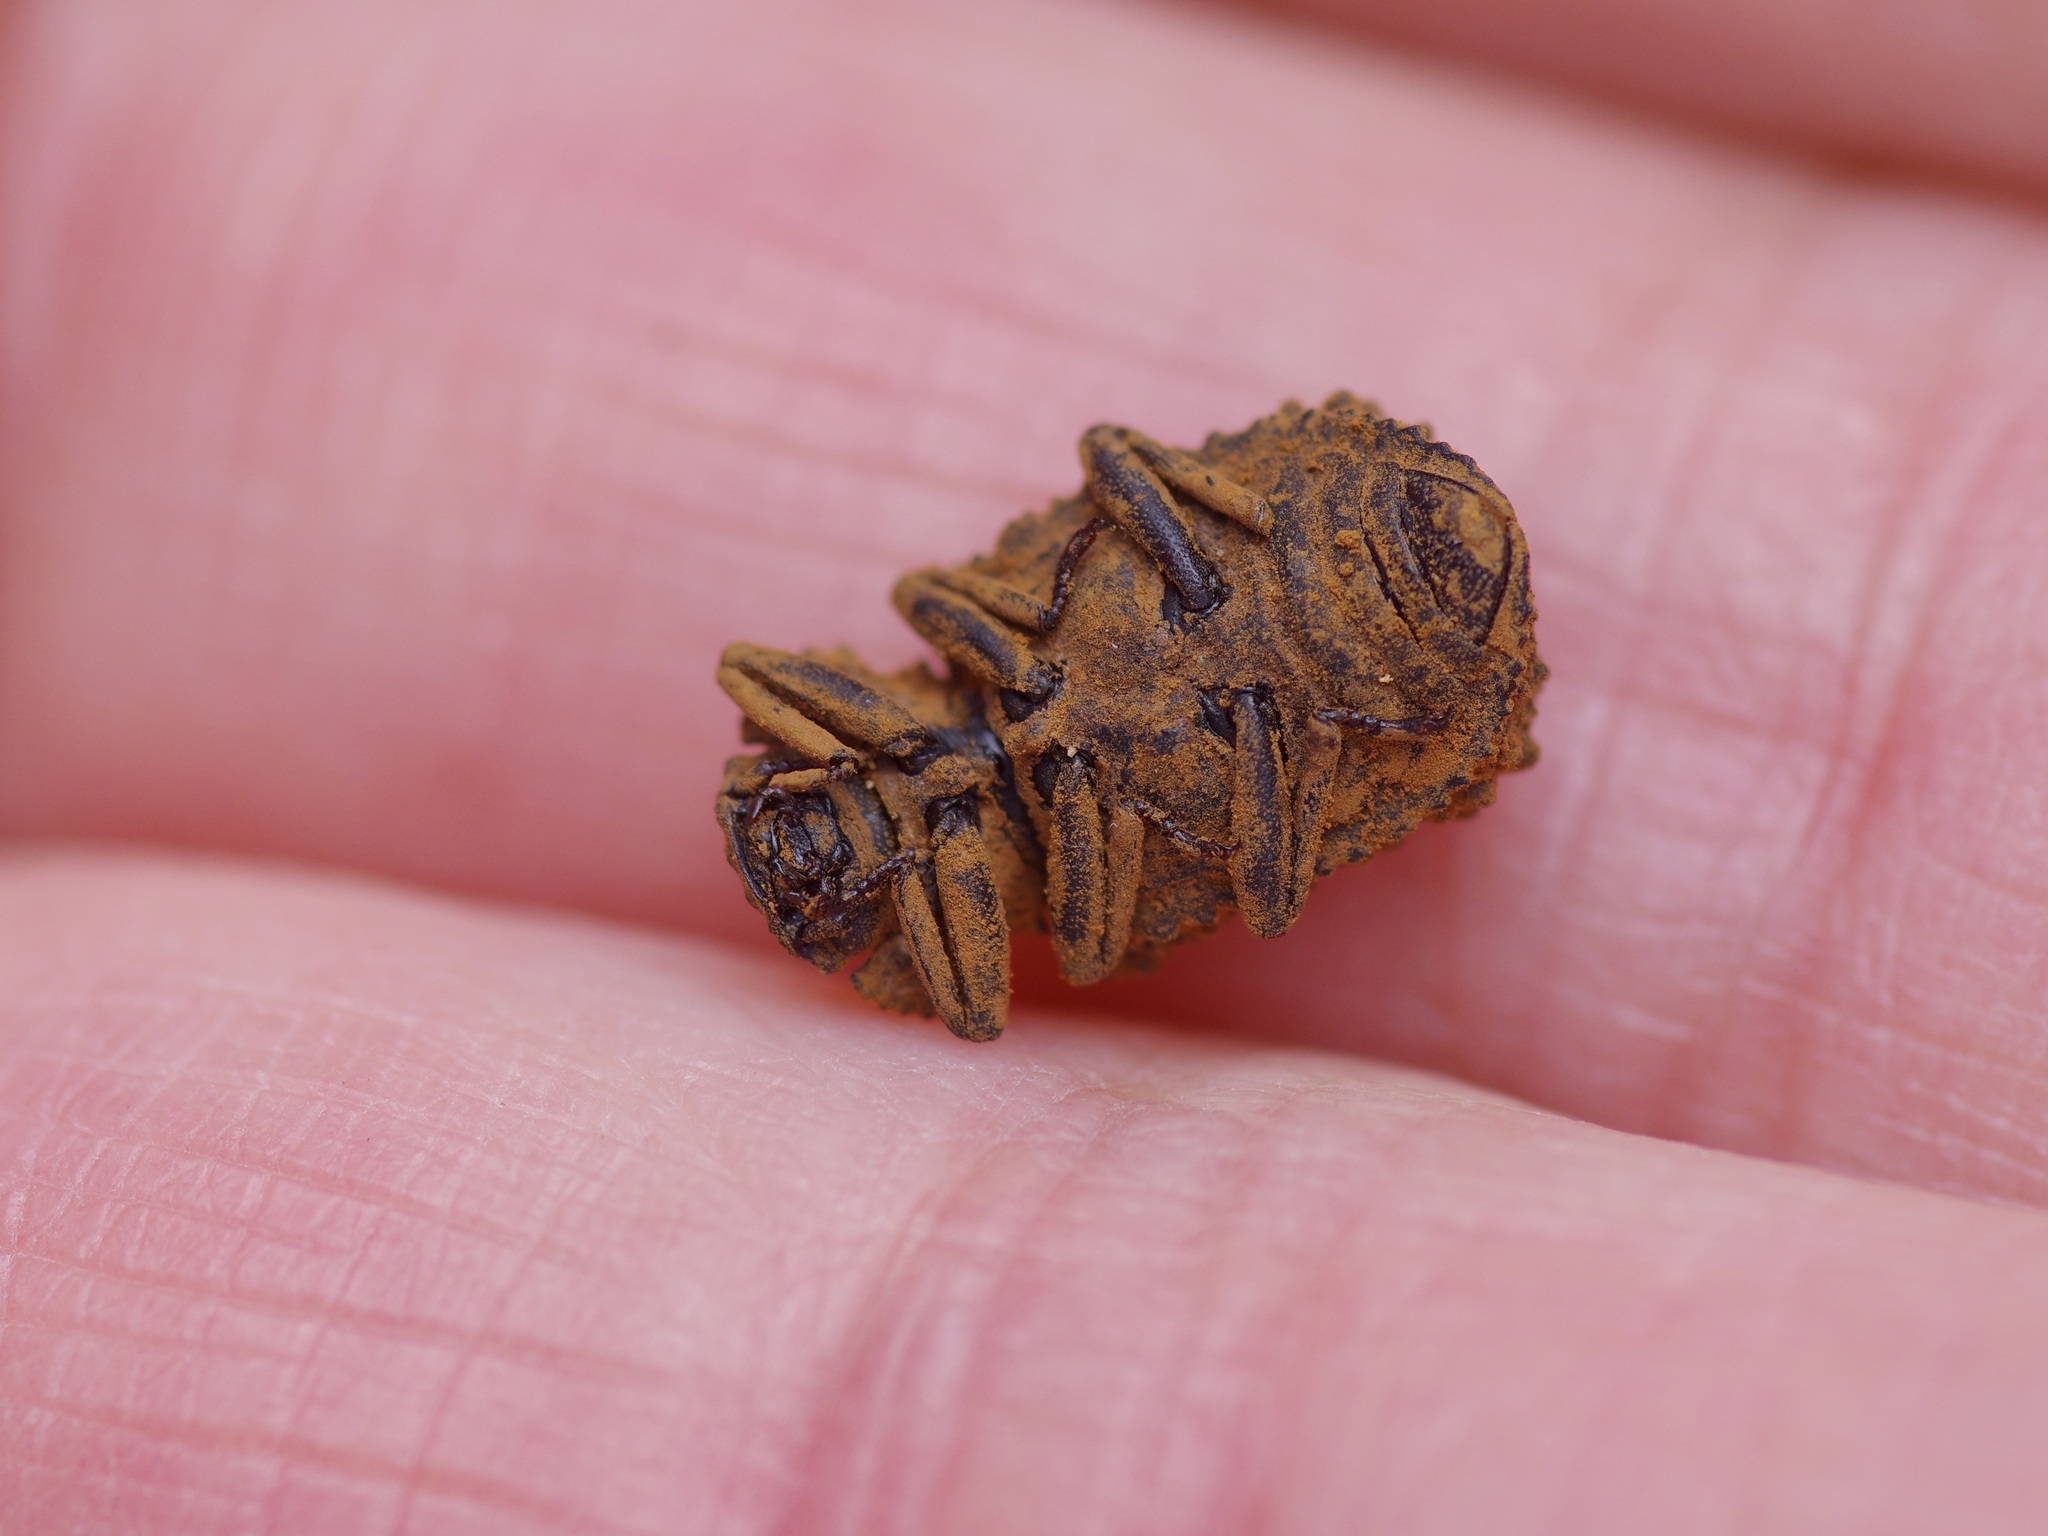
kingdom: Animalia
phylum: Arthropoda
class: Insecta
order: Coleoptera
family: Tenebrionidae
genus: Gnatocerus
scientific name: Gnatocerus cornutus
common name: Broad-horned flour beetle
